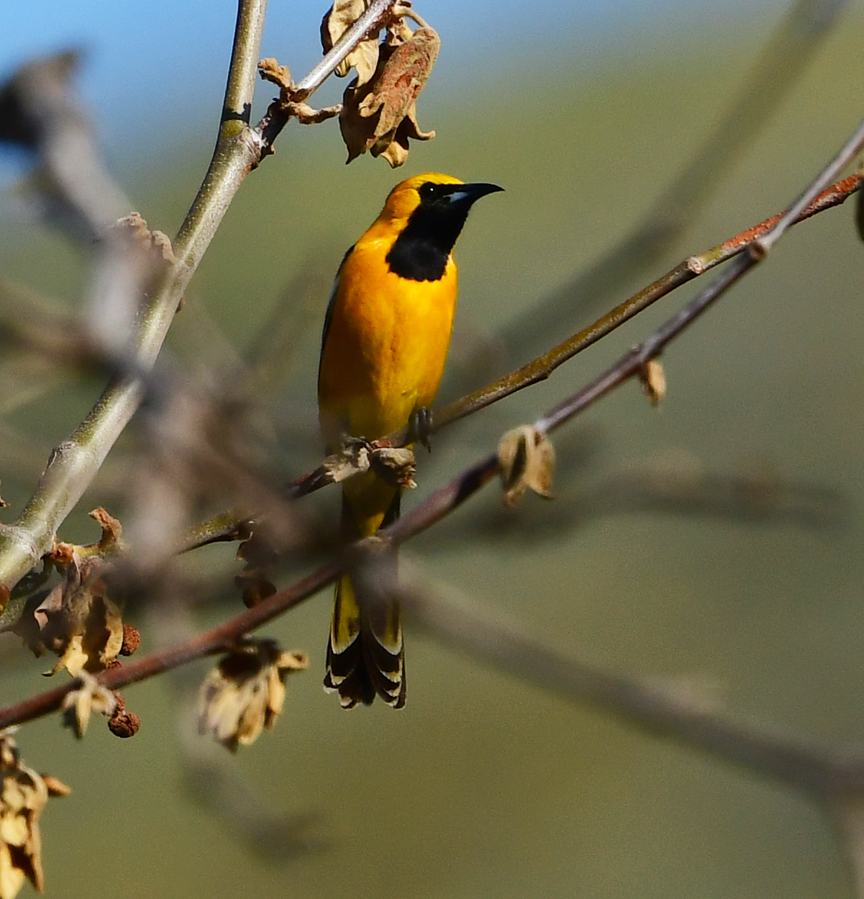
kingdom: Animalia
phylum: Chordata
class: Aves
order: Passeriformes
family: Icteridae
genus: Icterus
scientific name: Icterus cucullatus
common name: Hooded oriole
